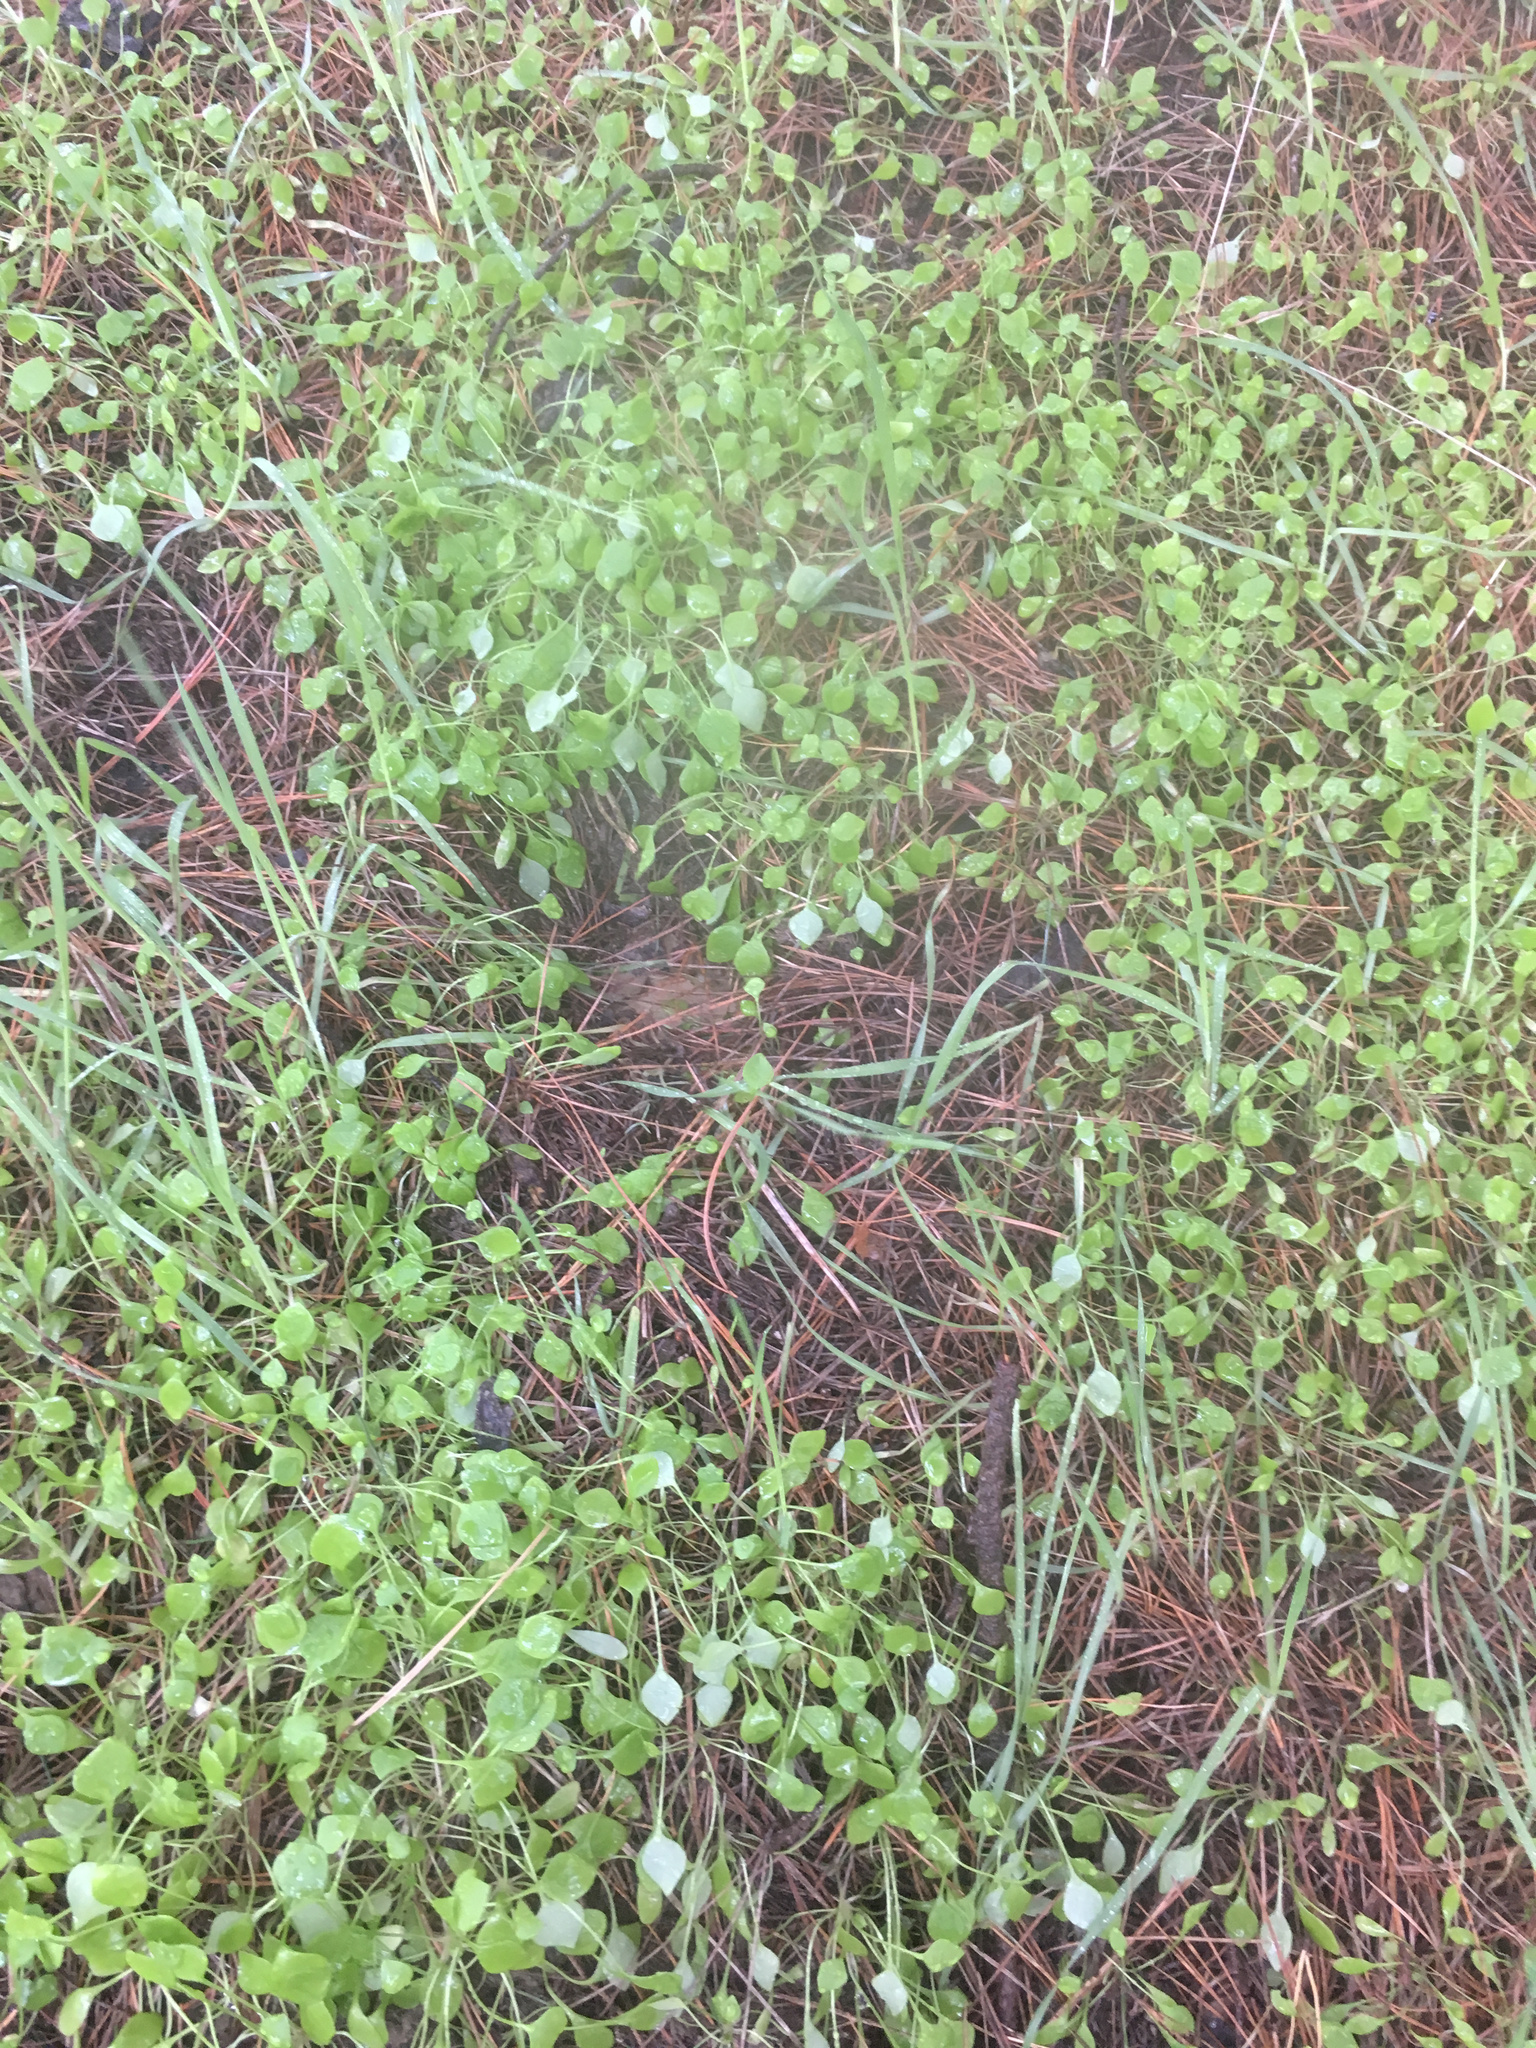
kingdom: Plantae
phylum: Tracheophyta
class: Magnoliopsida
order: Caryophyllales
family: Montiaceae
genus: Claytonia
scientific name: Claytonia perfoliata
